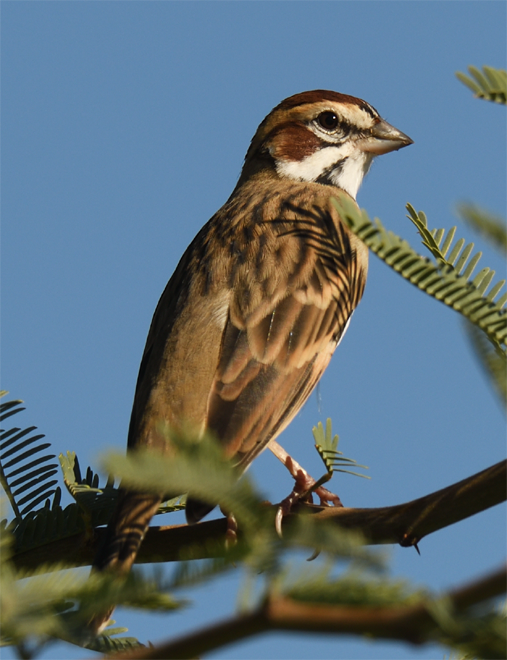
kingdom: Animalia
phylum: Chordata
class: Aves
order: Passeriformes
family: Passerellidae
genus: Chondestes
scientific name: Chondestes grammacus
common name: Lark sparrow
